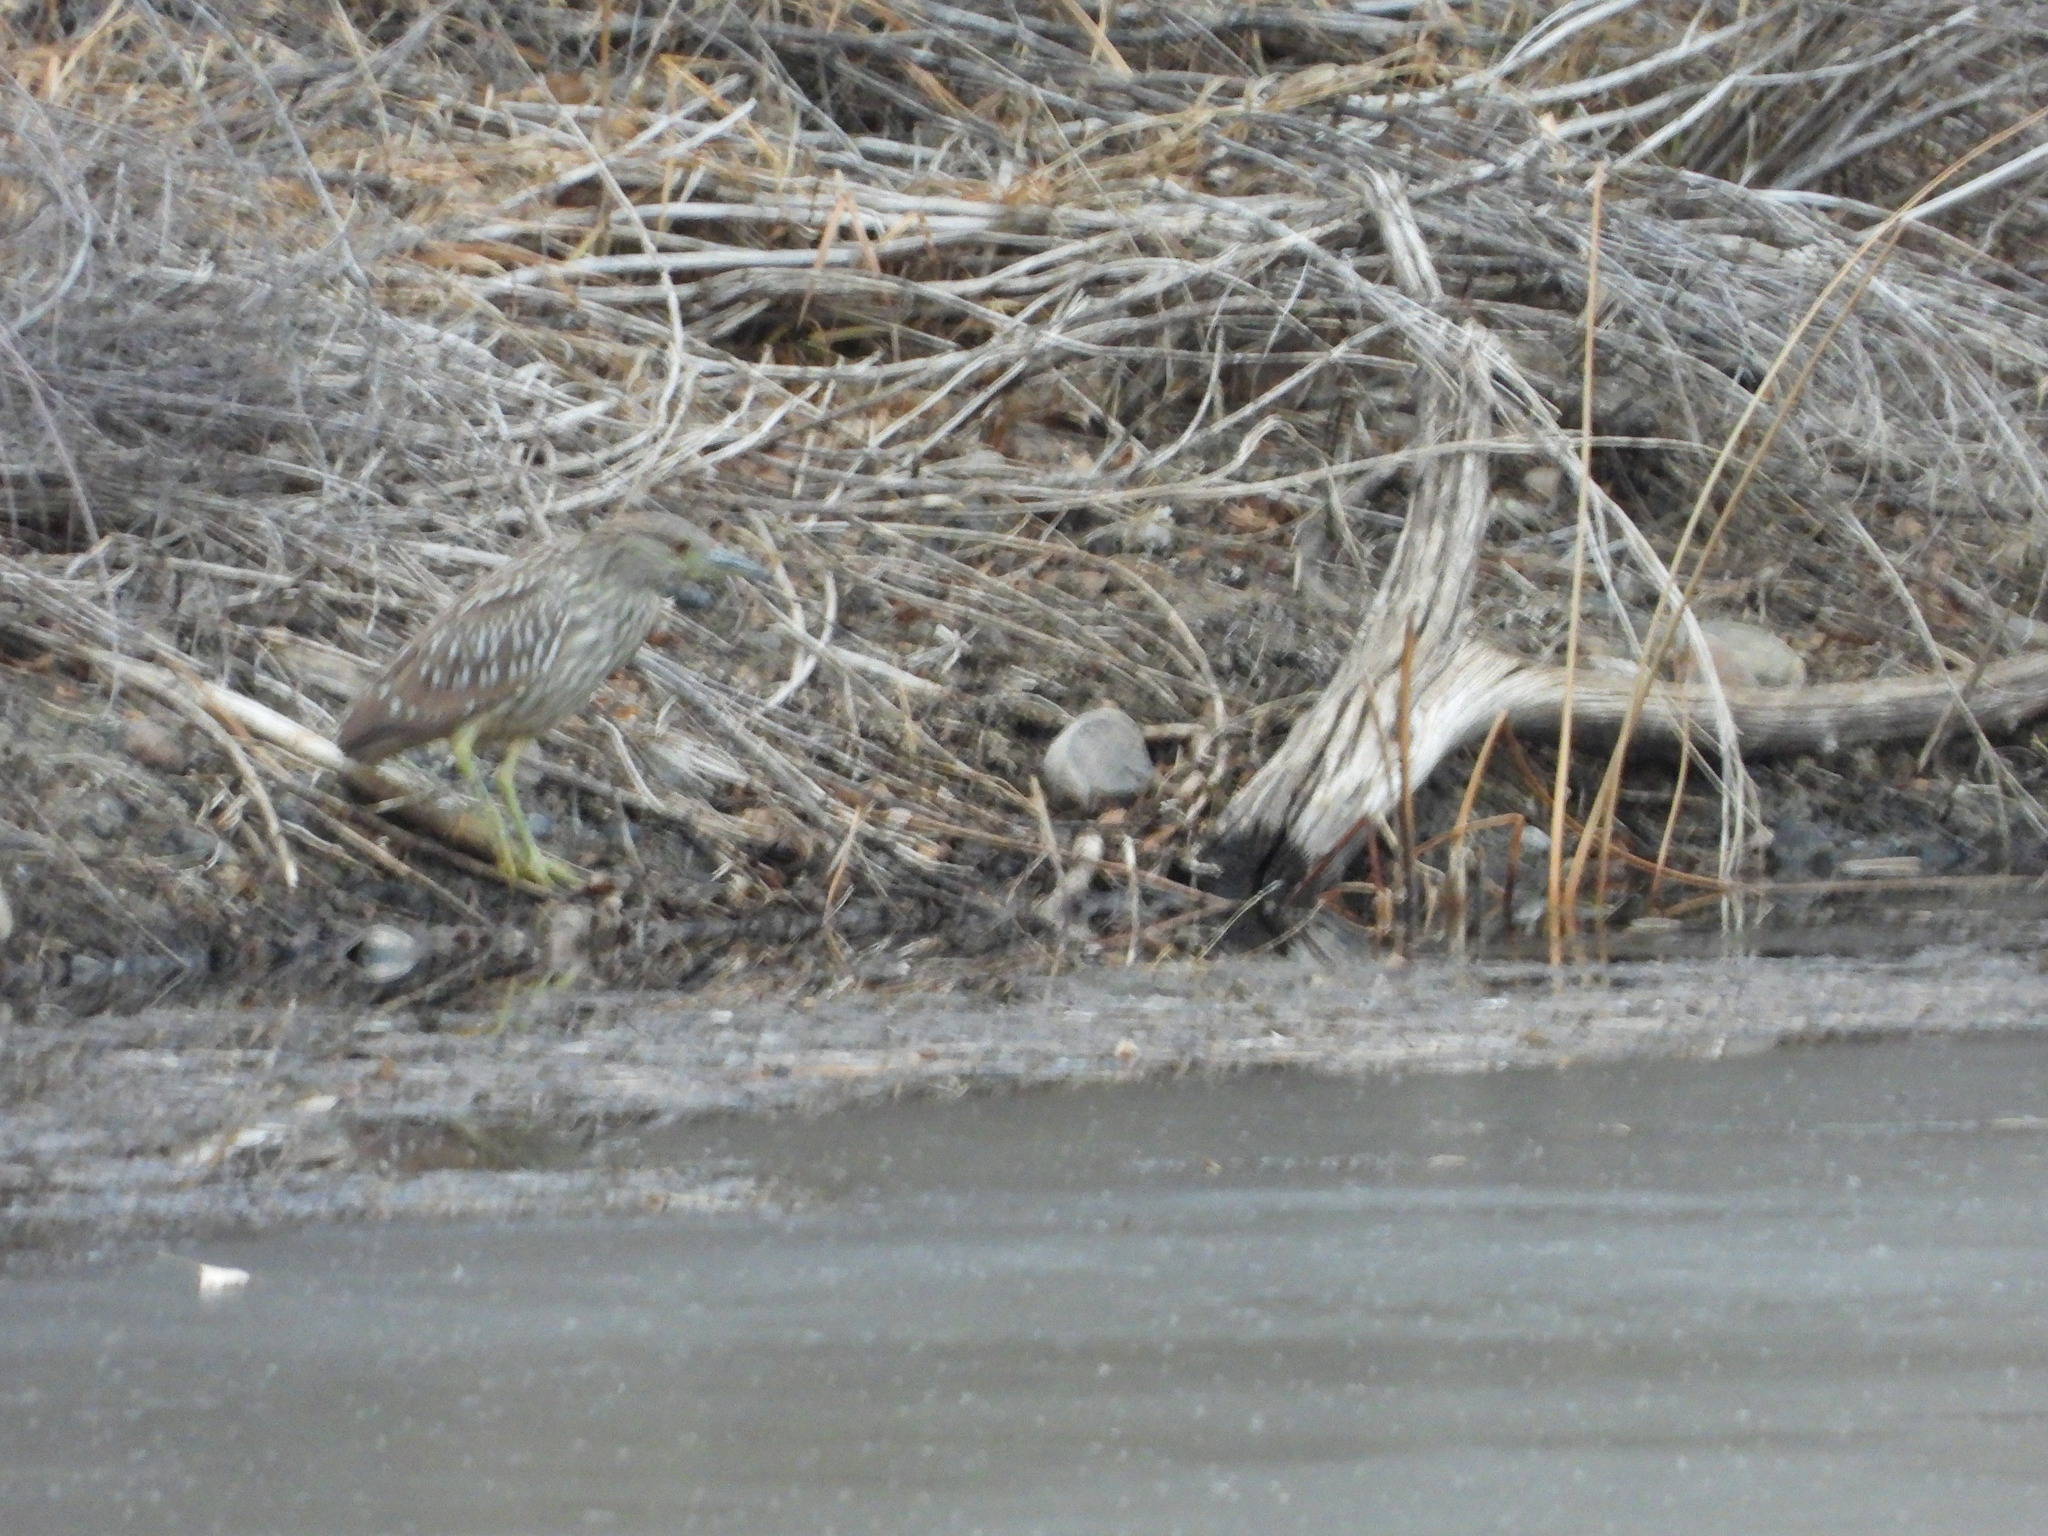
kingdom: Animalia
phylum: Chordata
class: Aves
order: Pelecaniformes
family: Ardeidae
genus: Nycticorax
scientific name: Nycticorax nycticorax
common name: Black-crowned night heron
